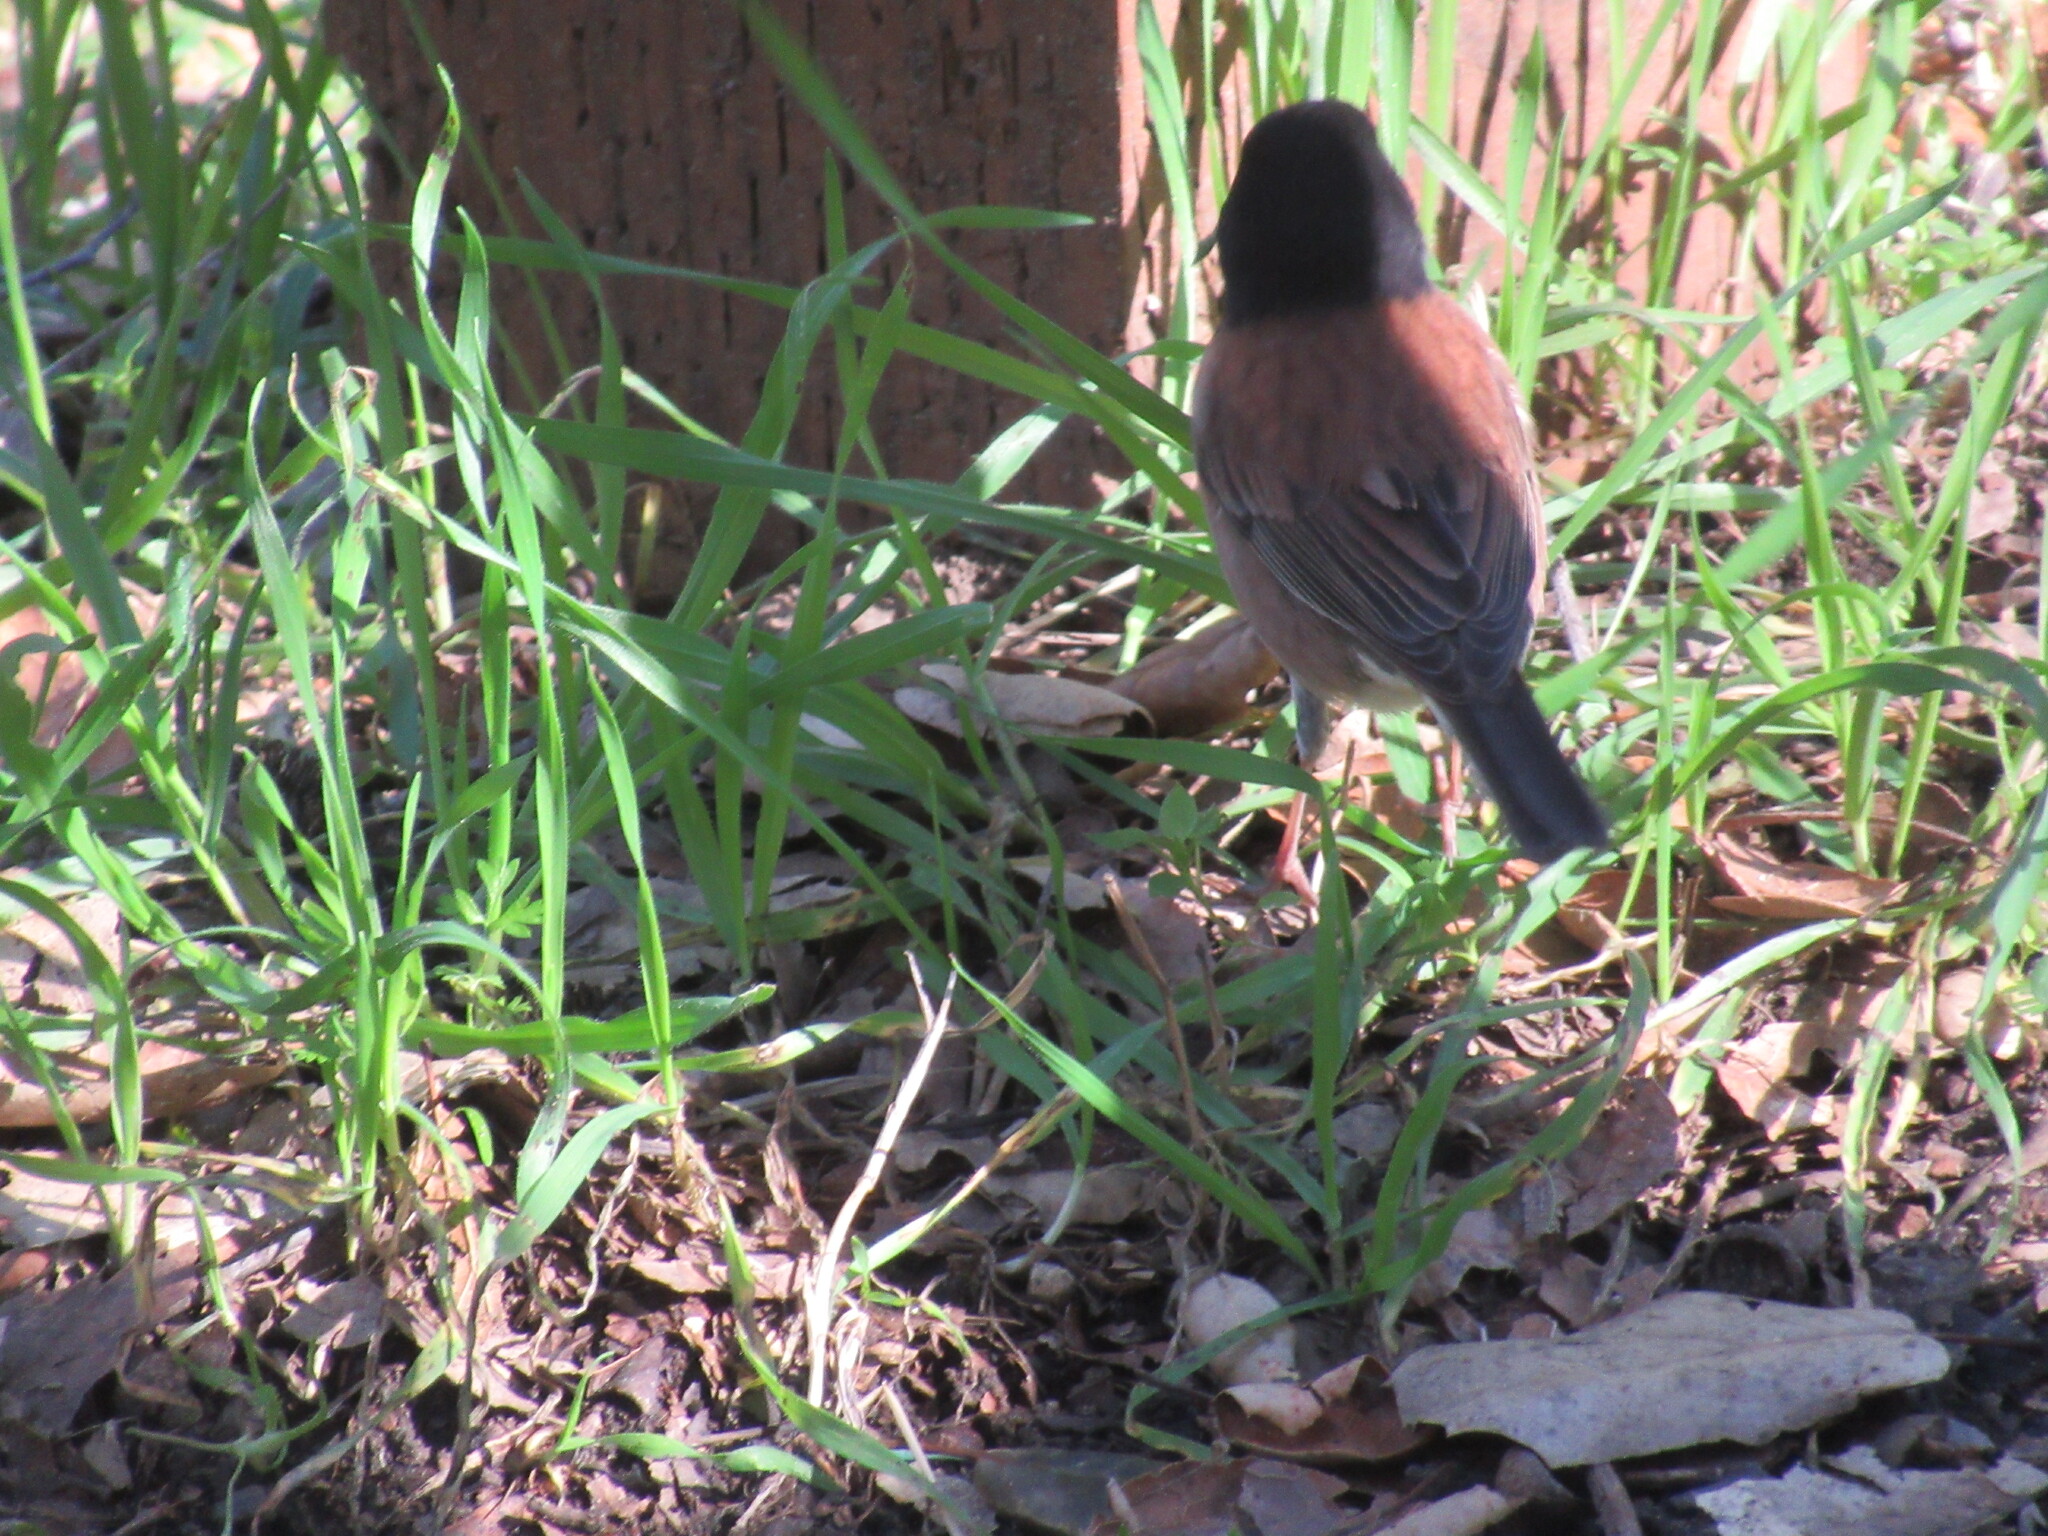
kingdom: Animalia
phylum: Chordata
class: Aves
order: Passeriformes
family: Passerellidae
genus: Junco
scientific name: Junco hyemalis
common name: Dark-eyed junco
